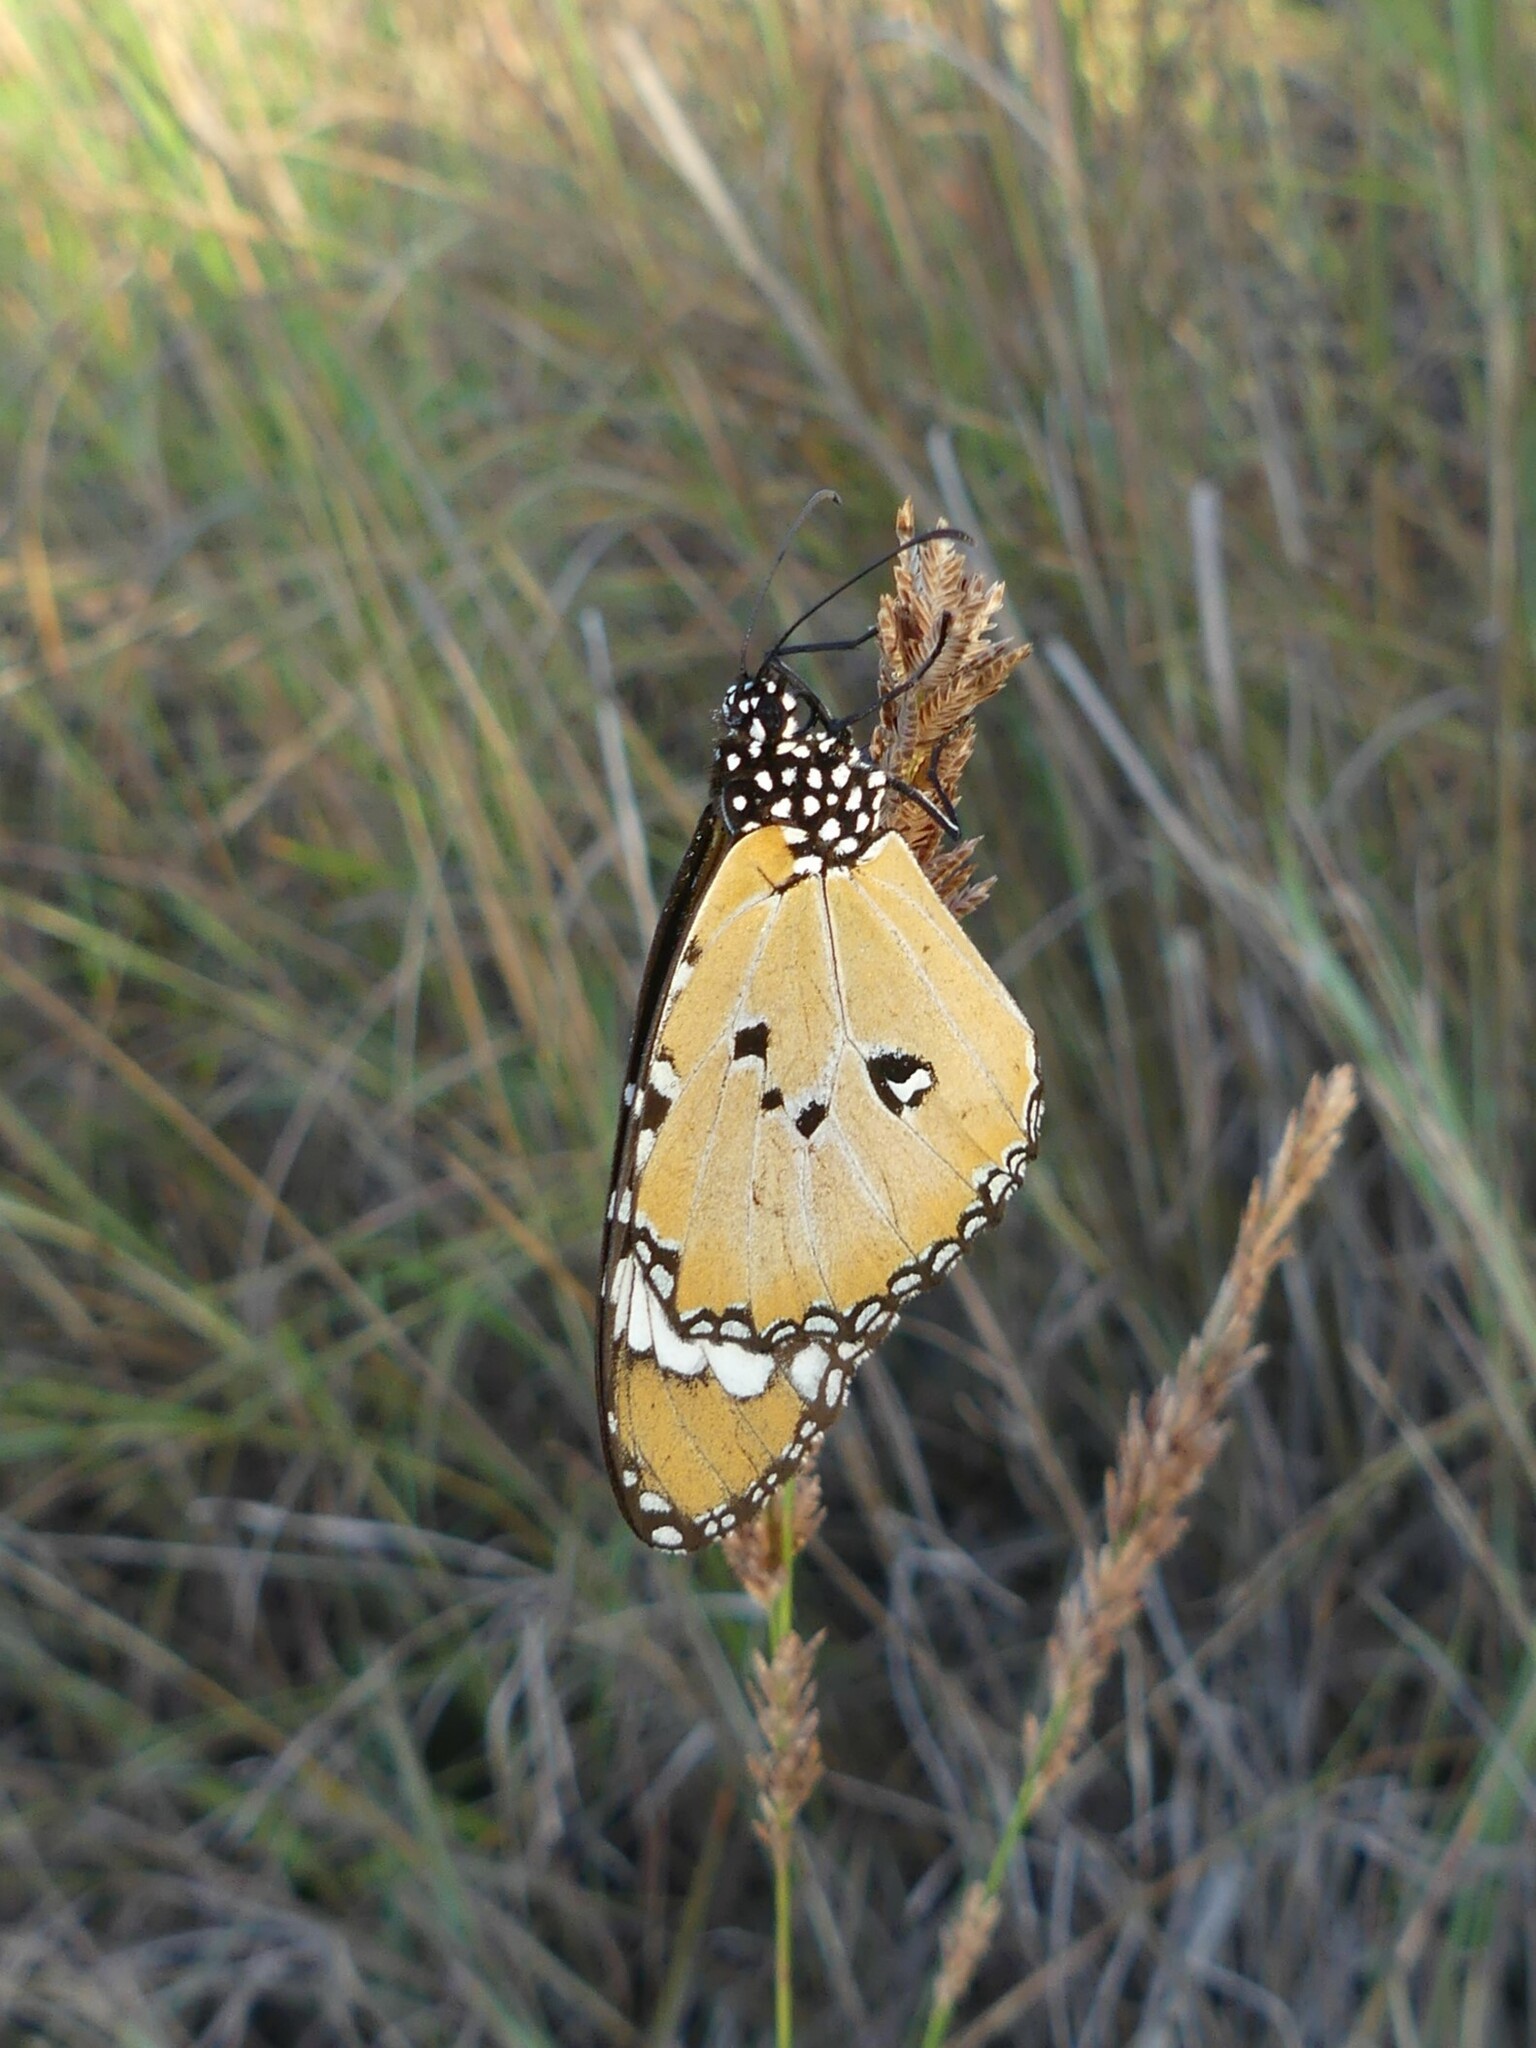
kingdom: Animalia
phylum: Arthropoda
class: Insecta
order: Lepidoptera
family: Nymphalidae
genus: Danaus
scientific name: Danaus chrysippus
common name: Plain tiger
